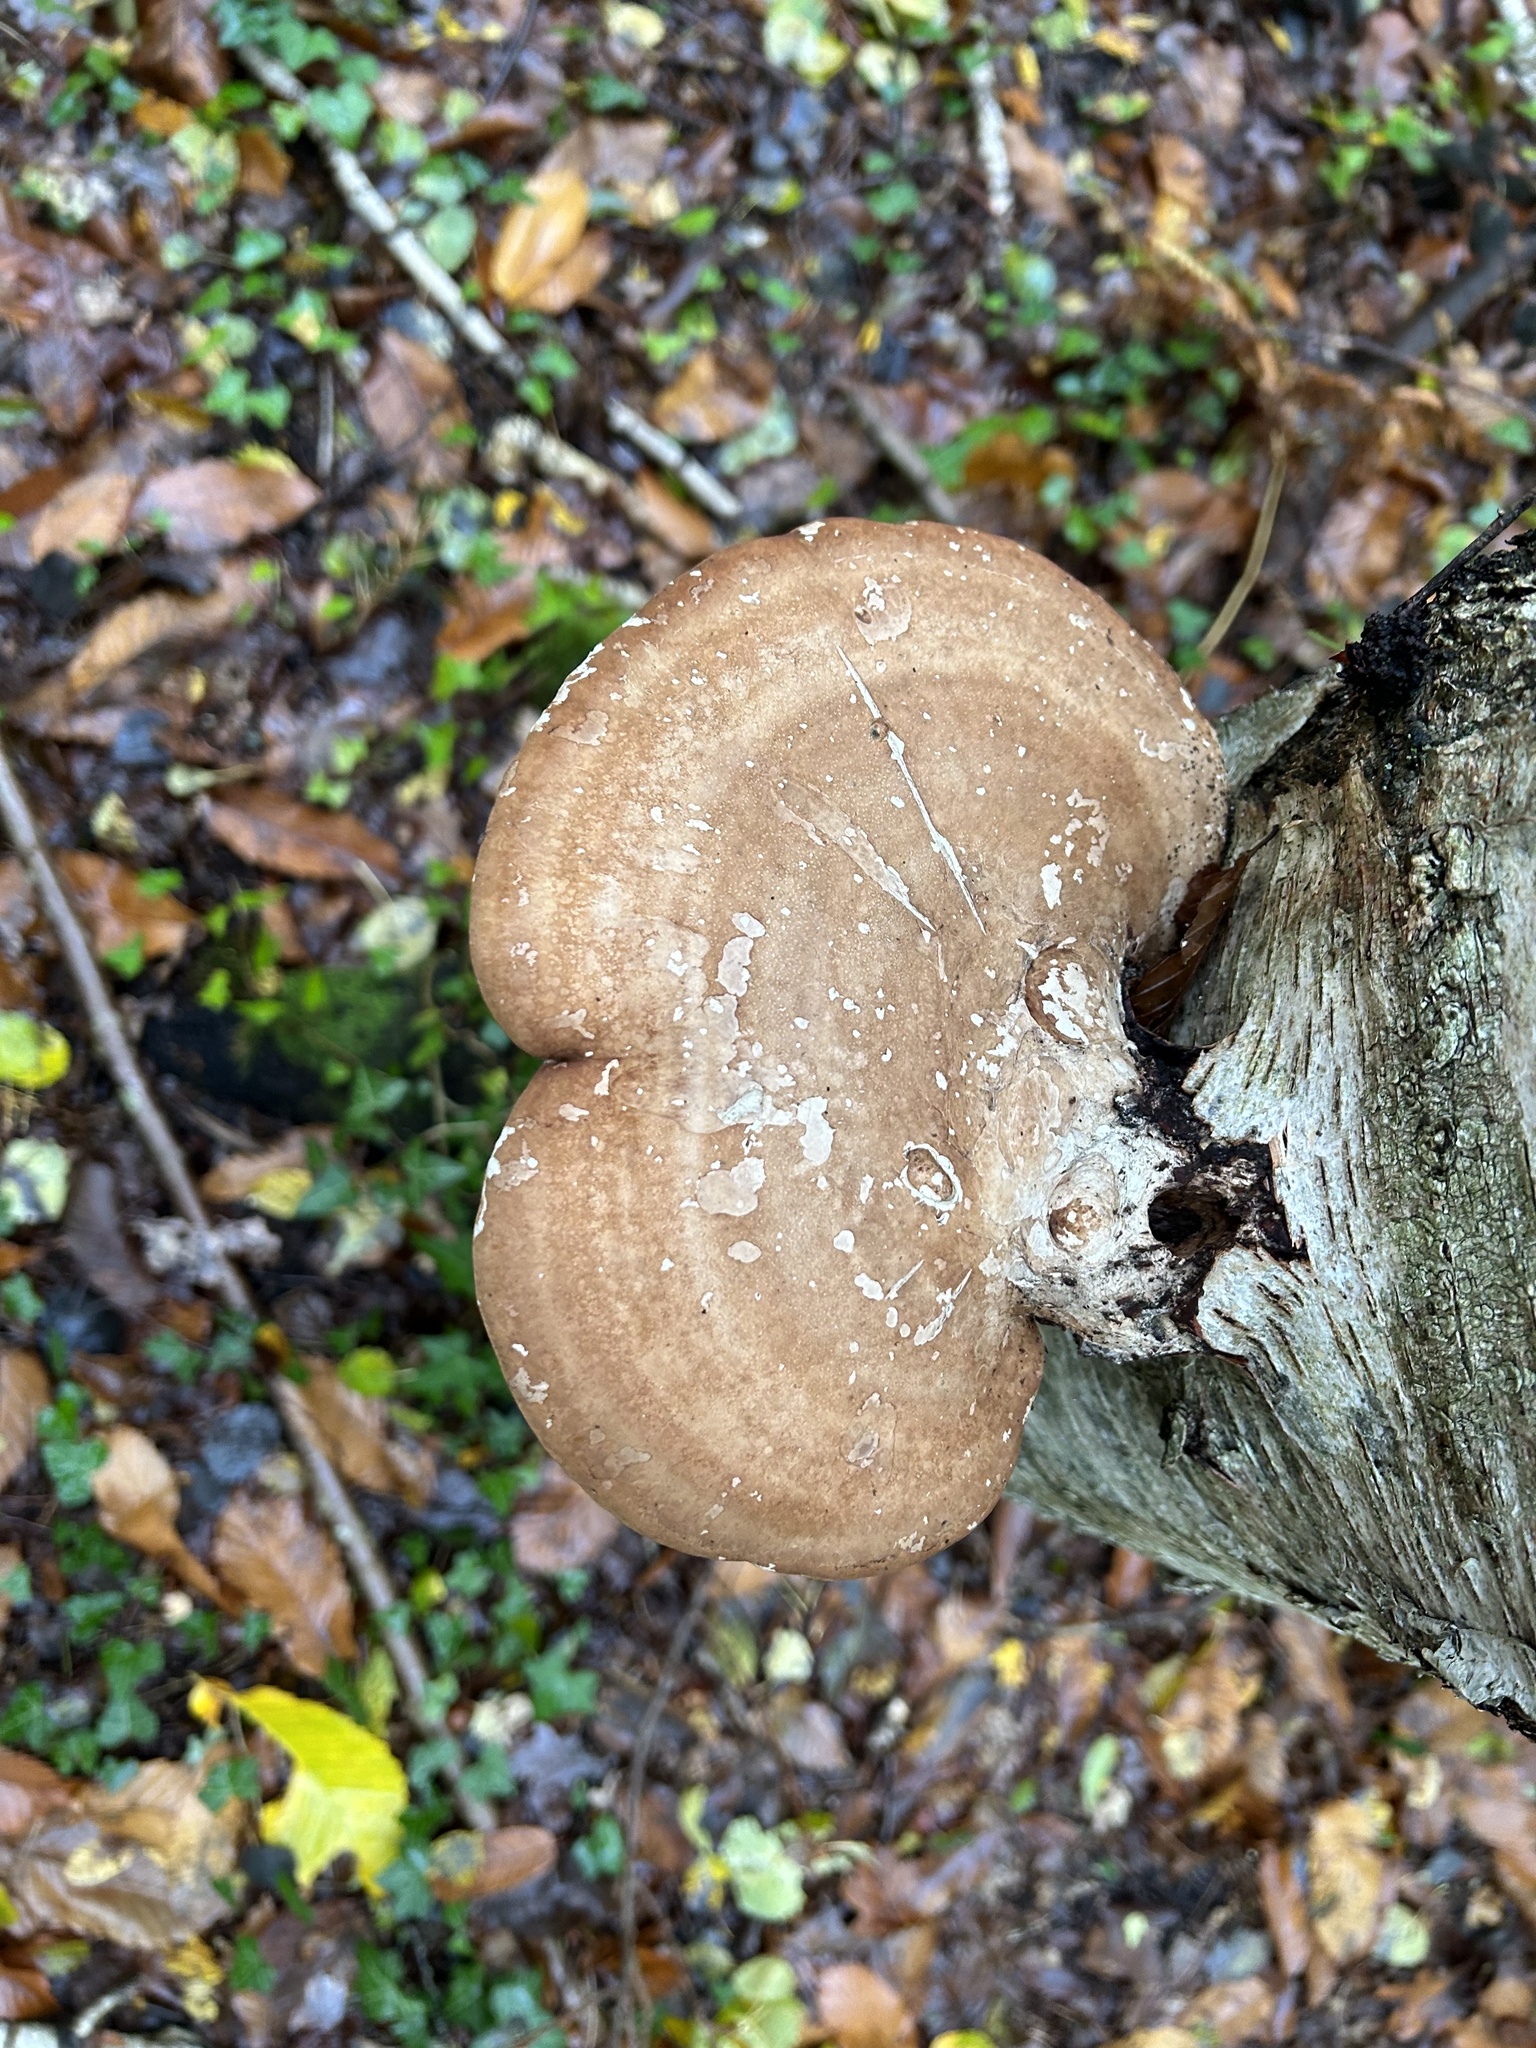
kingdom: Fungi
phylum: Basidiomycota
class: Agaricomycetes
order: Polyporales
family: Fomitopsidaceae
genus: Fomitopsis
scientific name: Fomitopsis betulina
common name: Birch polypore
